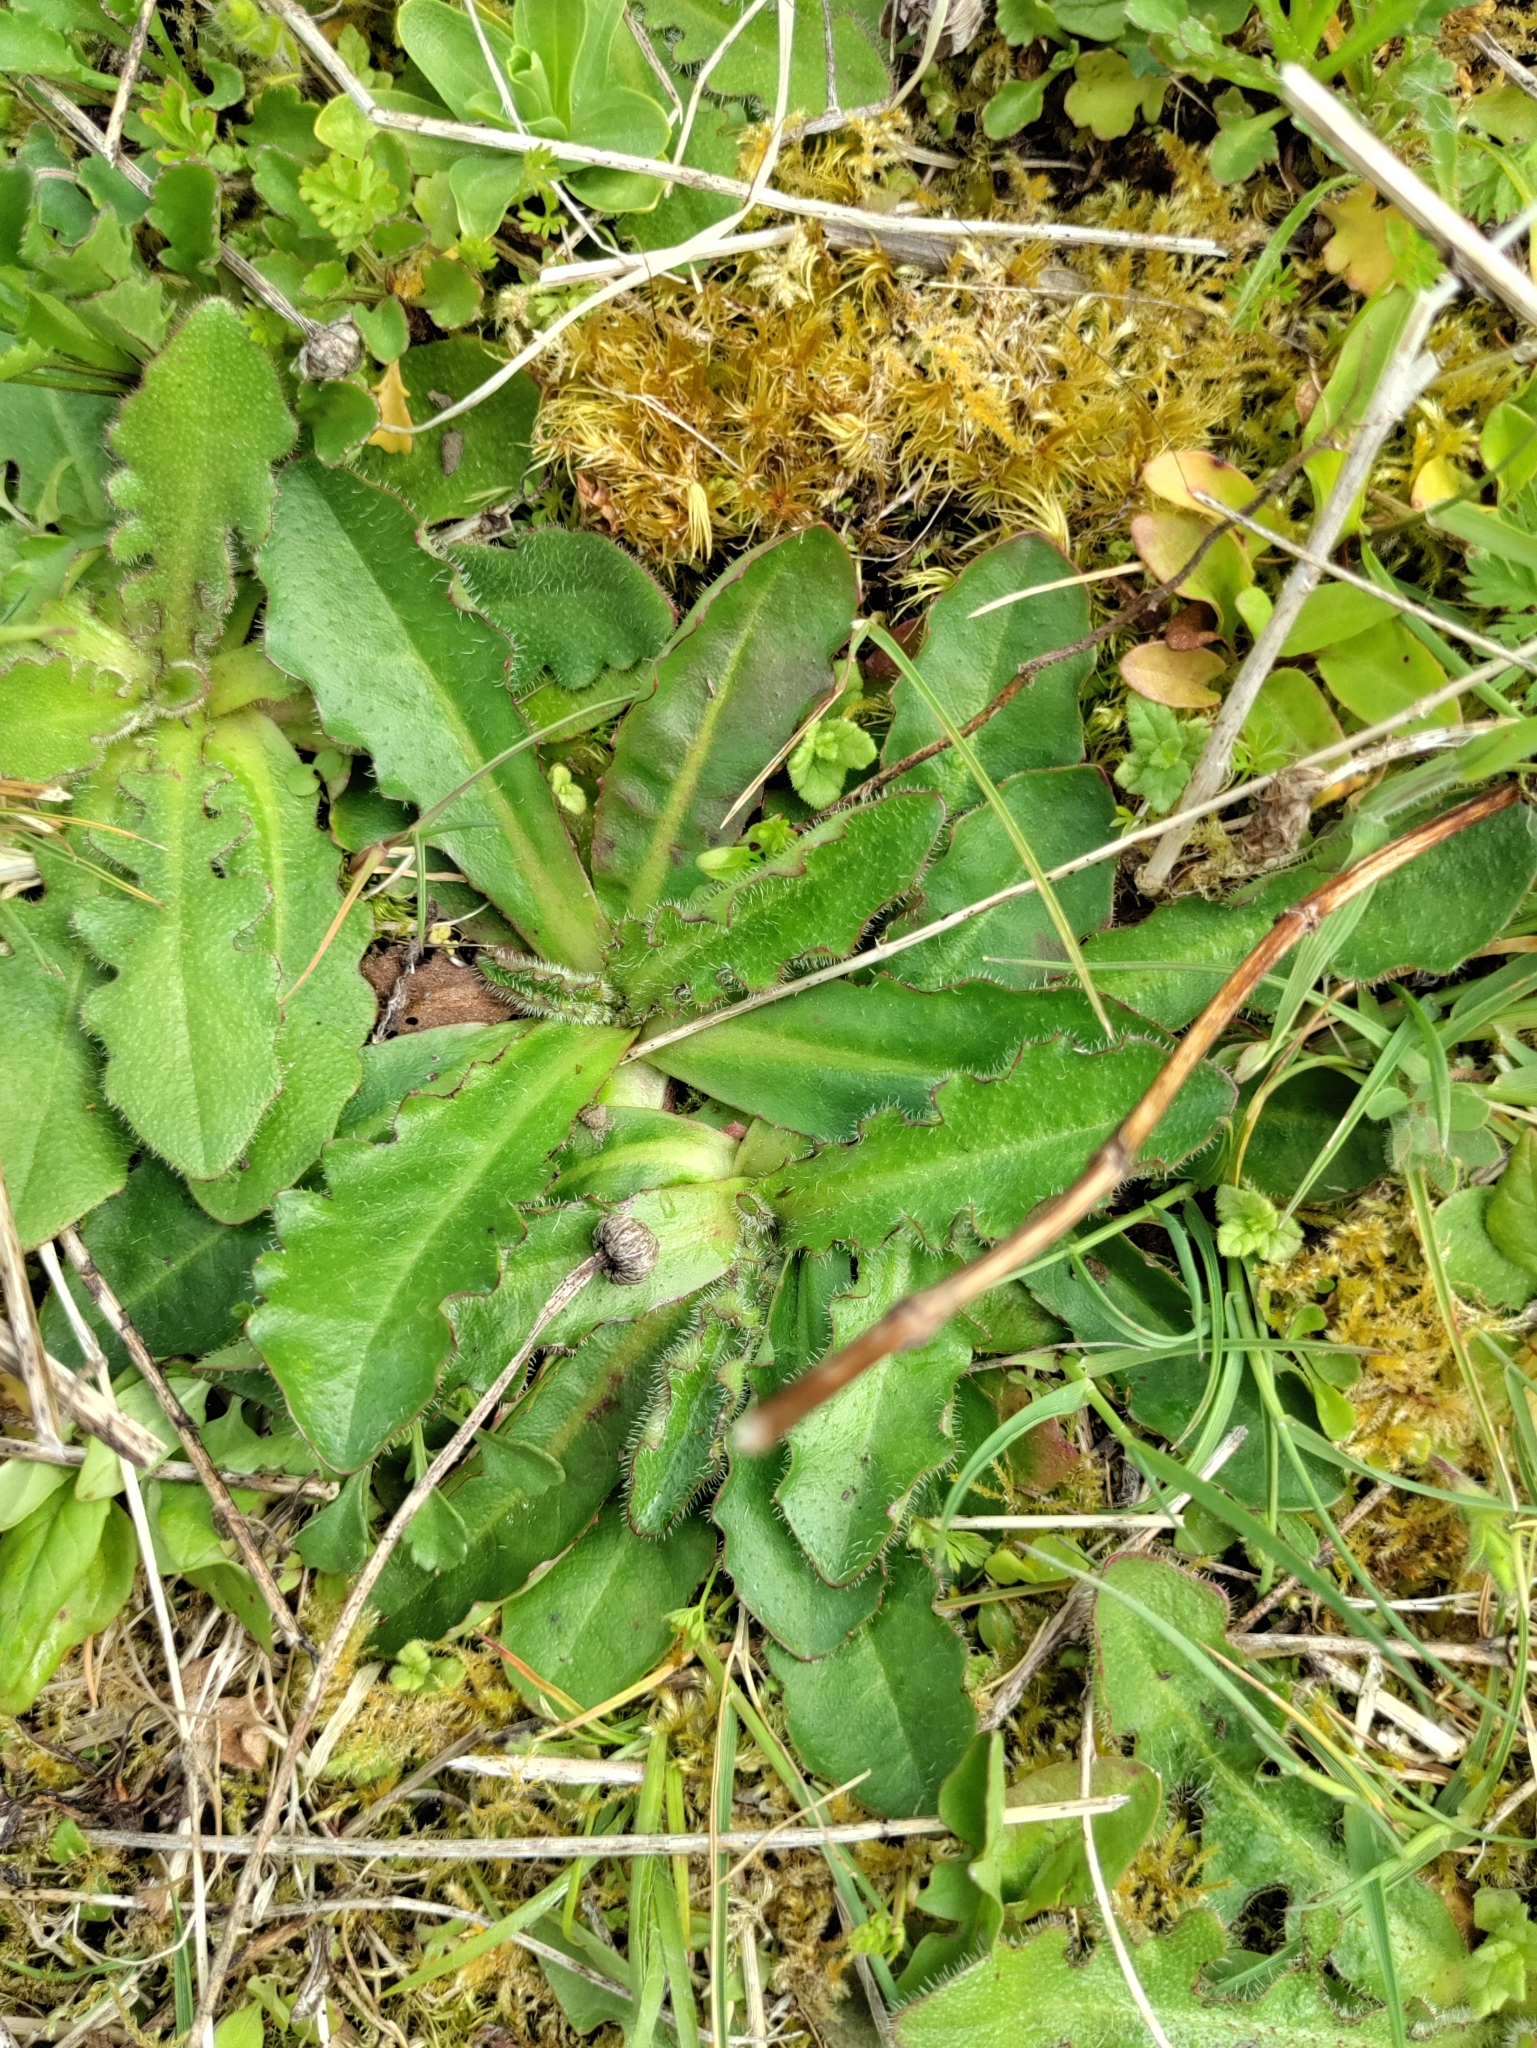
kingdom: Plantae
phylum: Tracheophyta
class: Magnoliopsida
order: Asterales
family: Asteraceae
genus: Hypochaeris
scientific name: Hypochaeris radicata
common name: Flatweed
